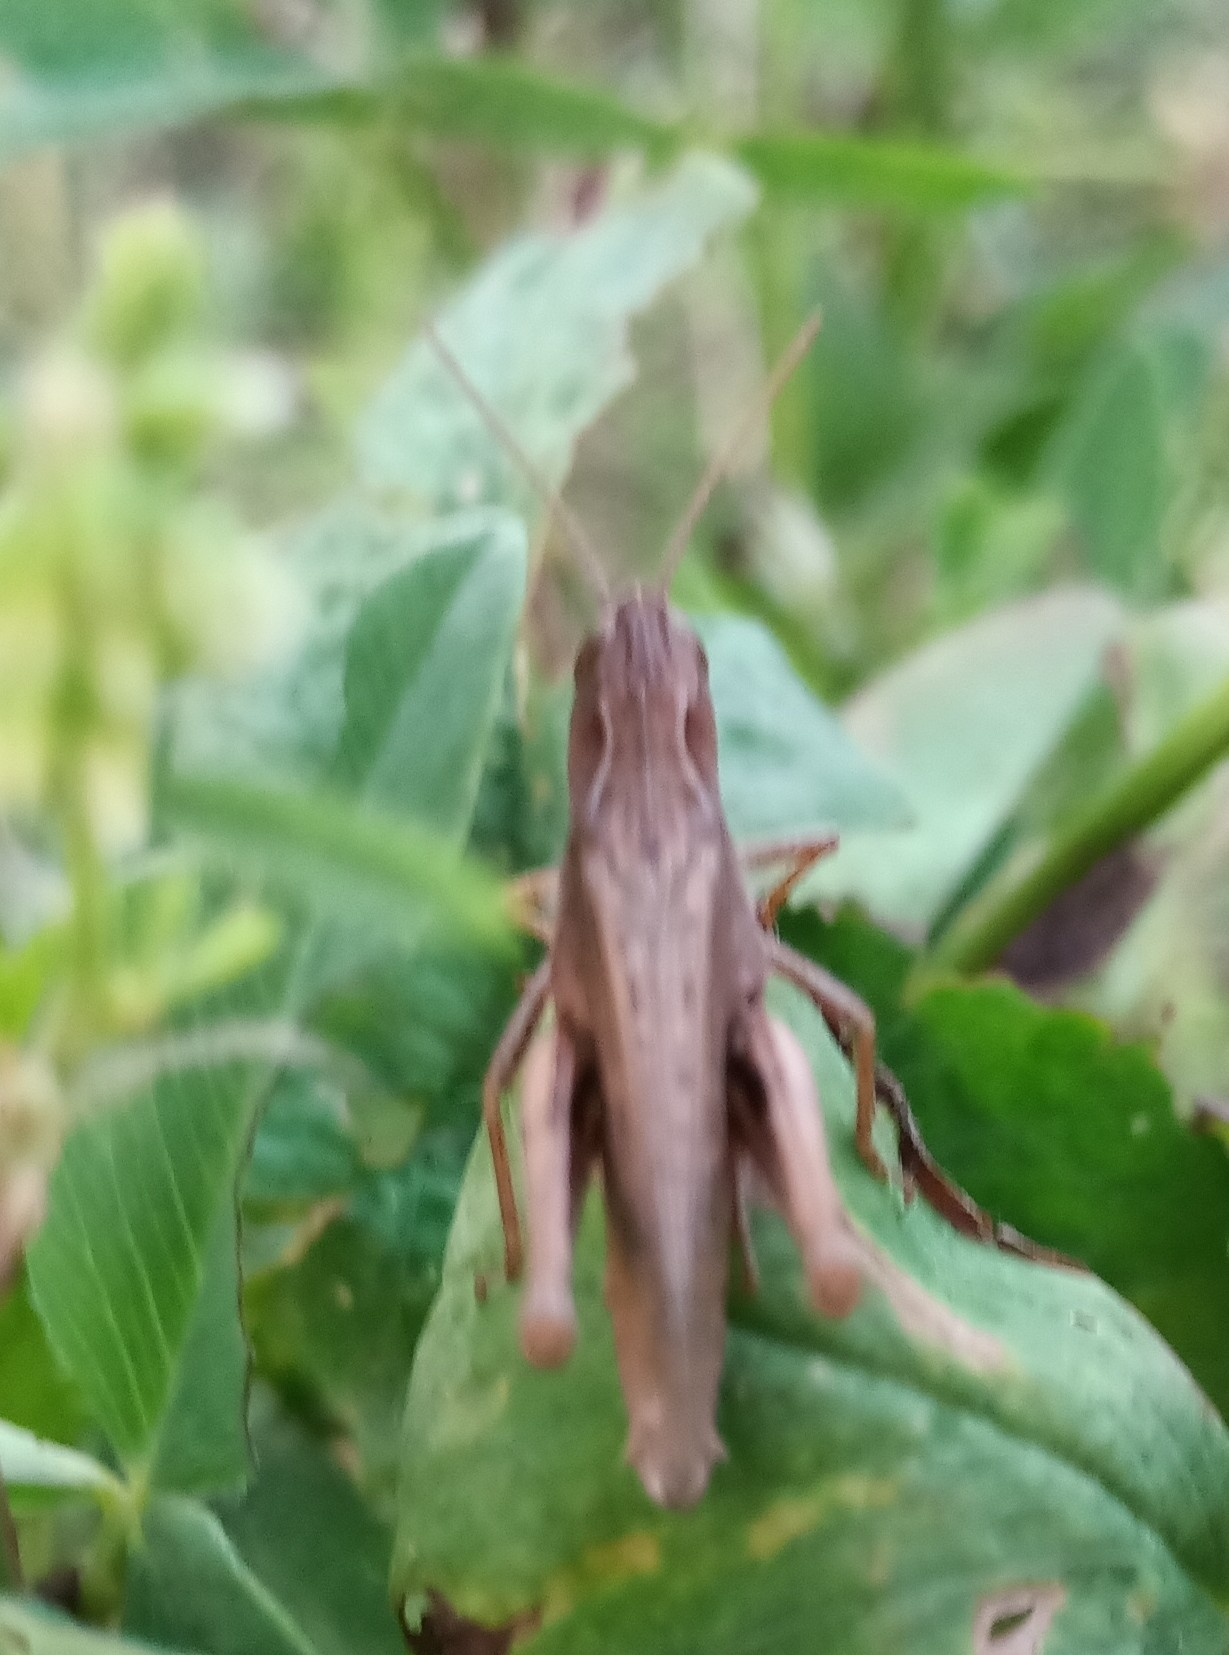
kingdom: Animalia
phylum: Arthropoda
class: Insecta
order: Orthoptera
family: Acrididae
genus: Chorthippus
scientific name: Chorthippus dorsatus
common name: Steppe grasshopper
